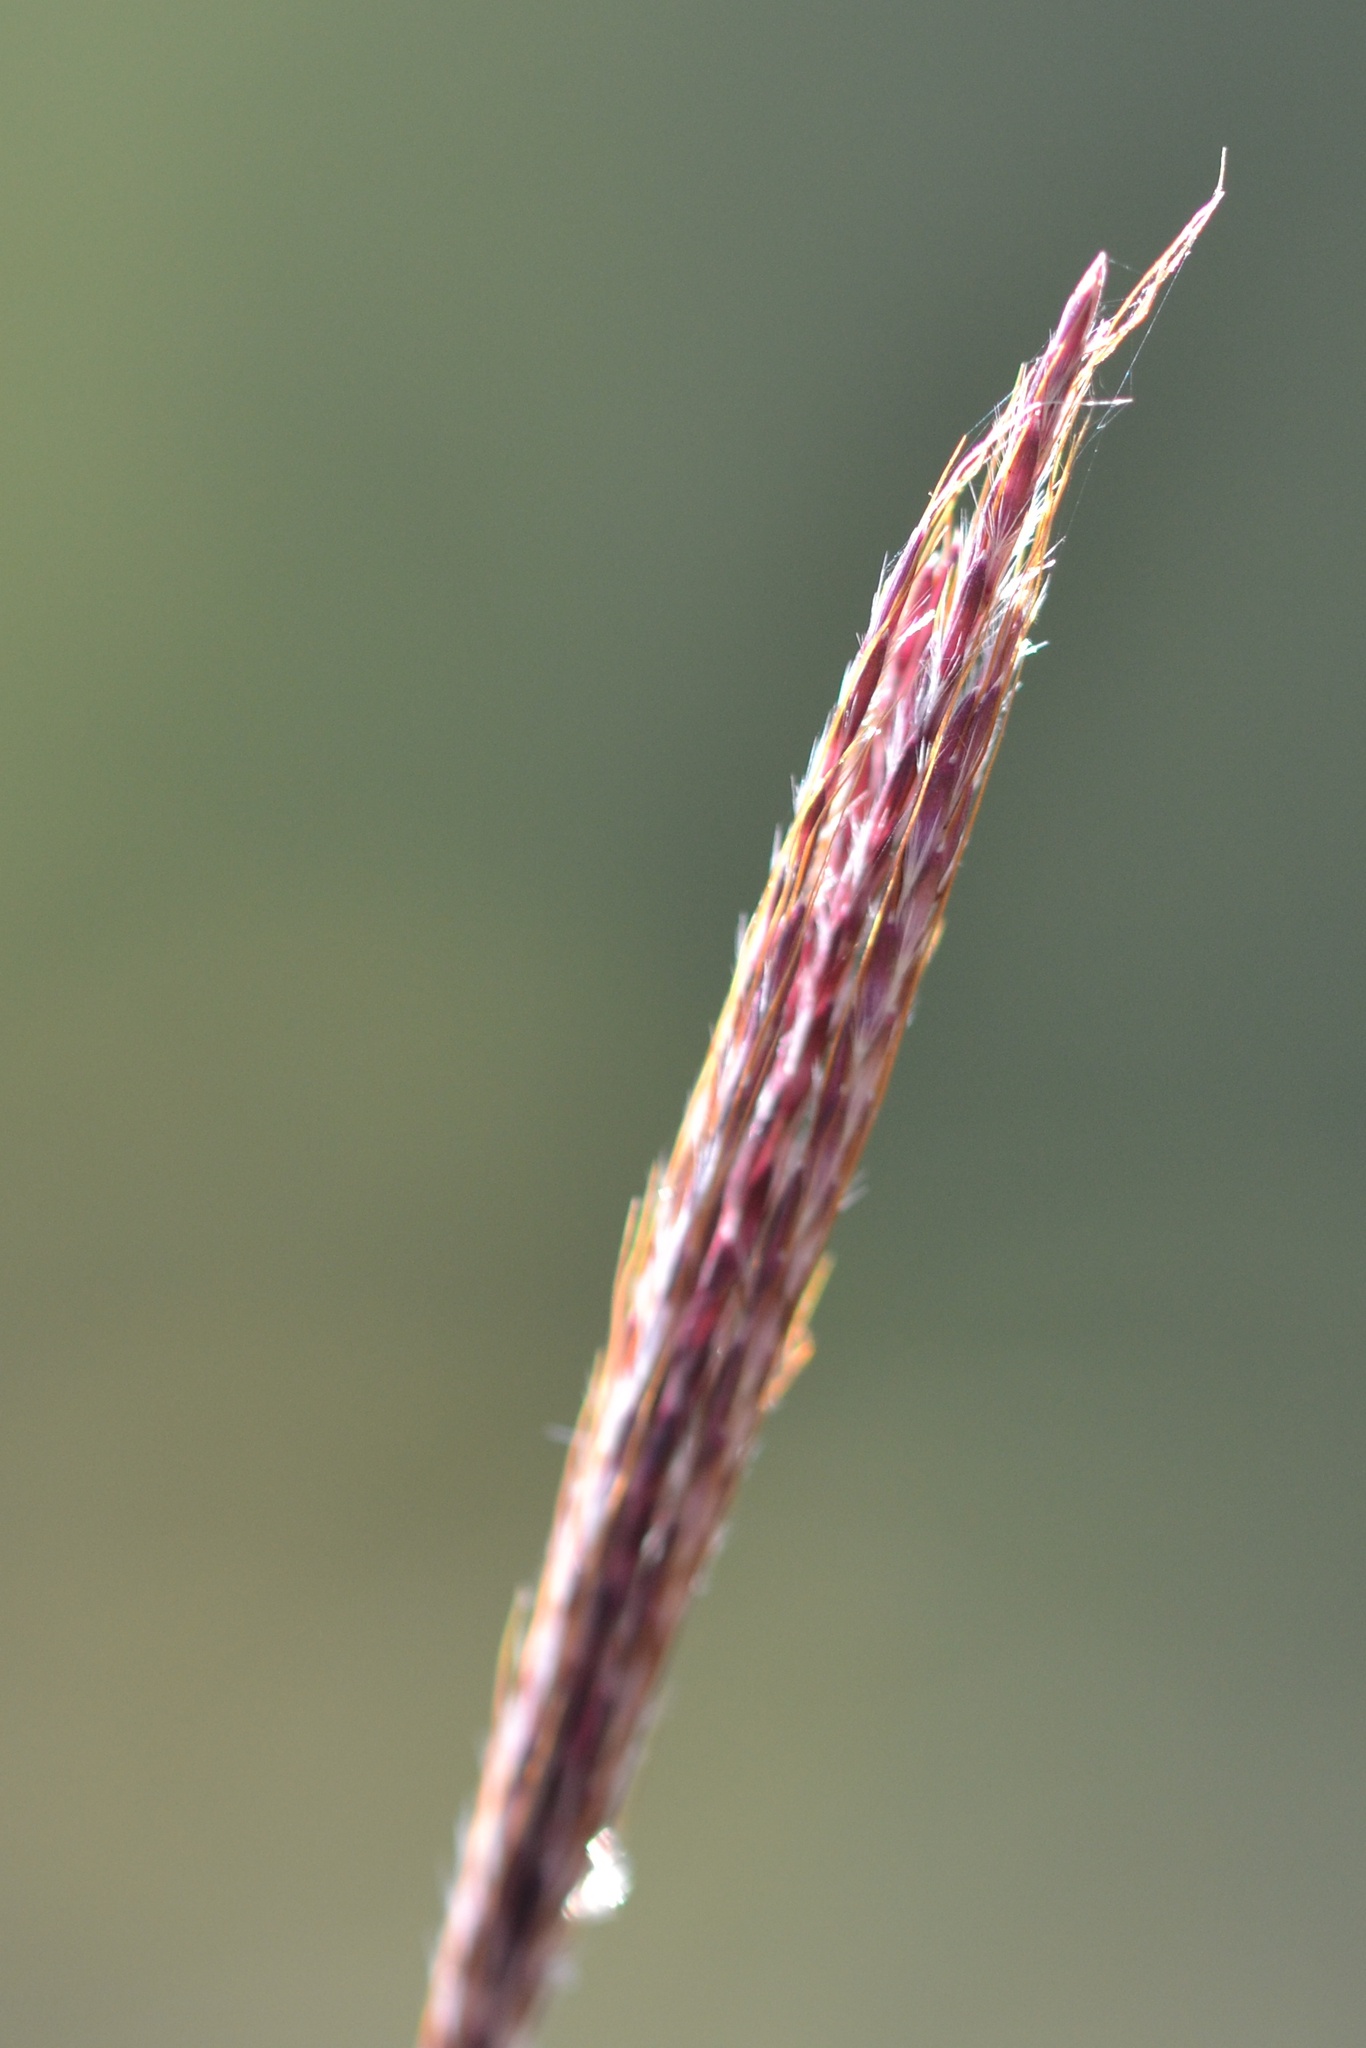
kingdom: Plantae
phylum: Tracheophyta
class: Liliopsida
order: Poales
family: Poaceae
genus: Bothriochloa
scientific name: Bothriochloa ischaemum
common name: Yellow bluestem
